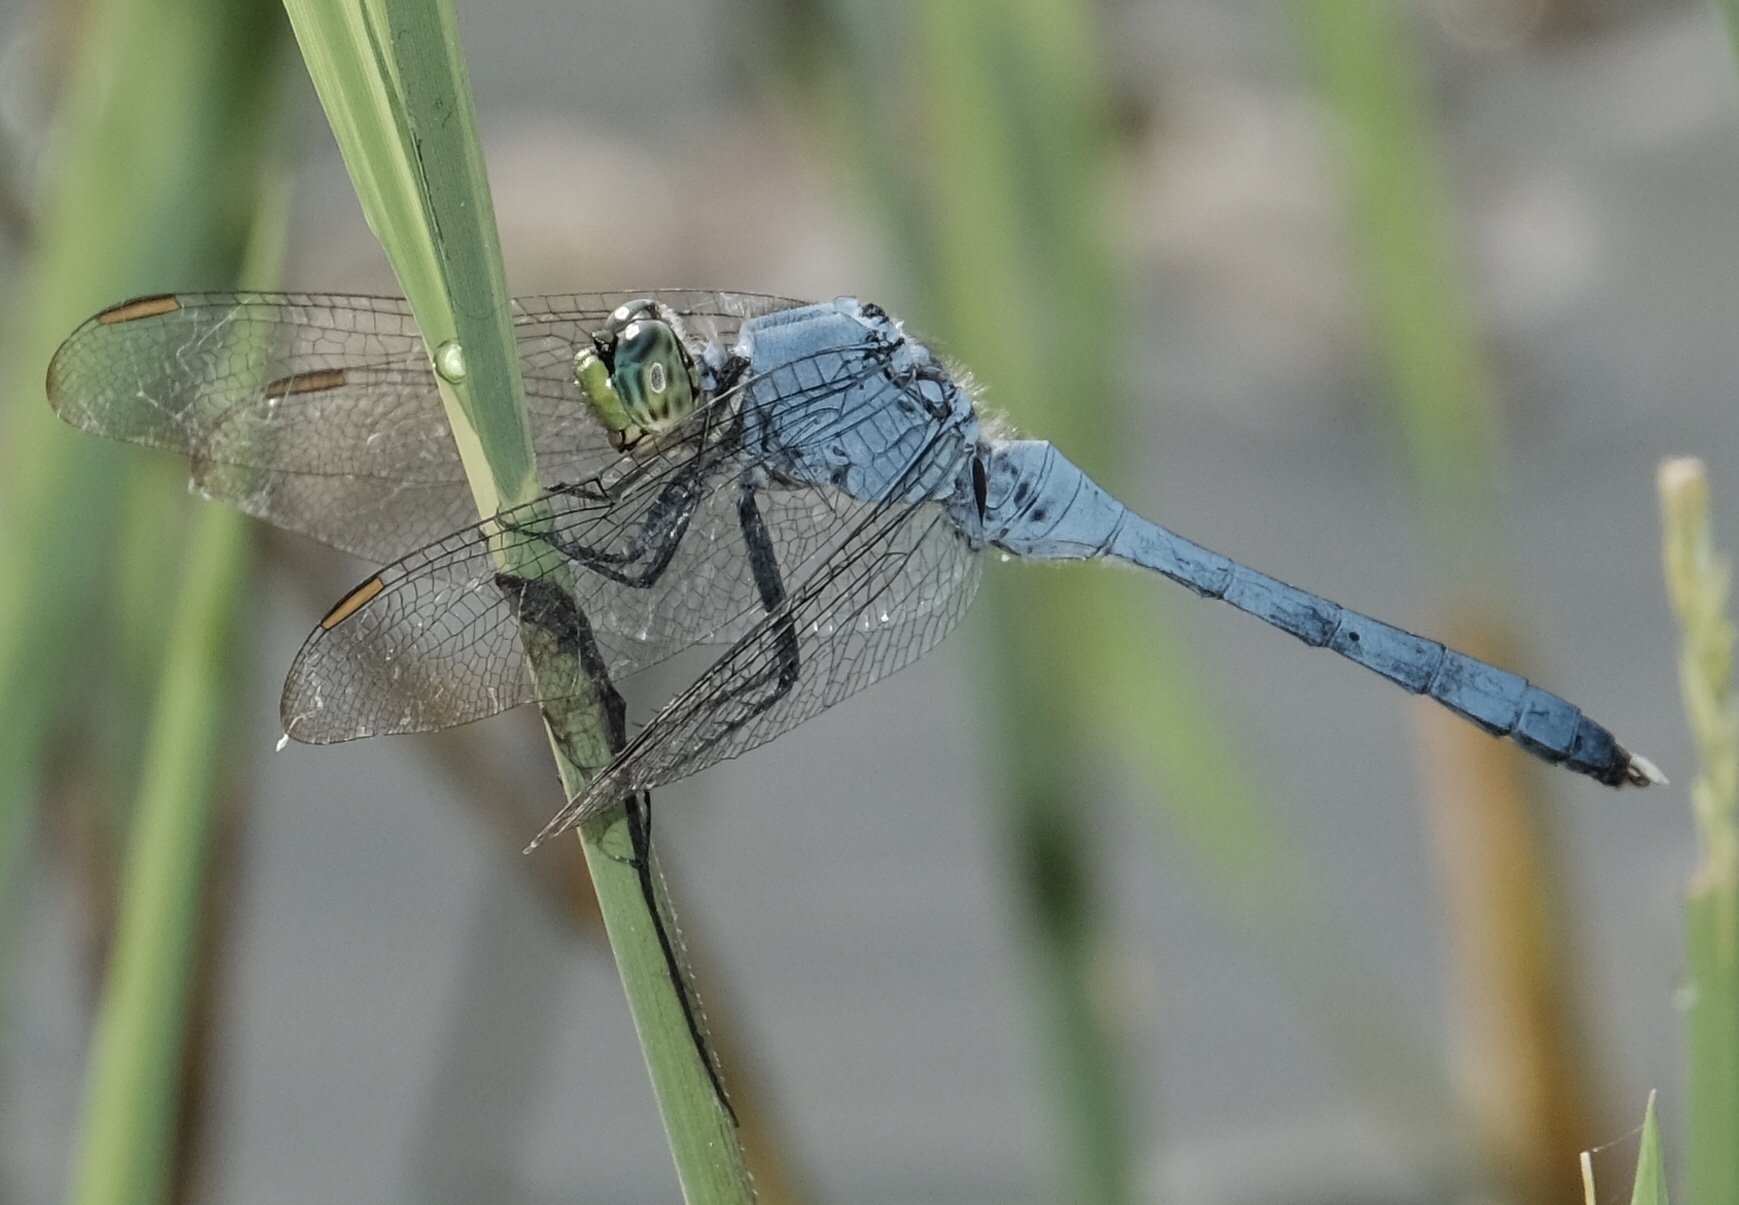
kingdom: Animalia
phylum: Arthropoda
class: Insecta
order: Odonata
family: Libellulidae
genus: Erythemis
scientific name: Erythemis simplicicollis
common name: Eastern pondhawk
